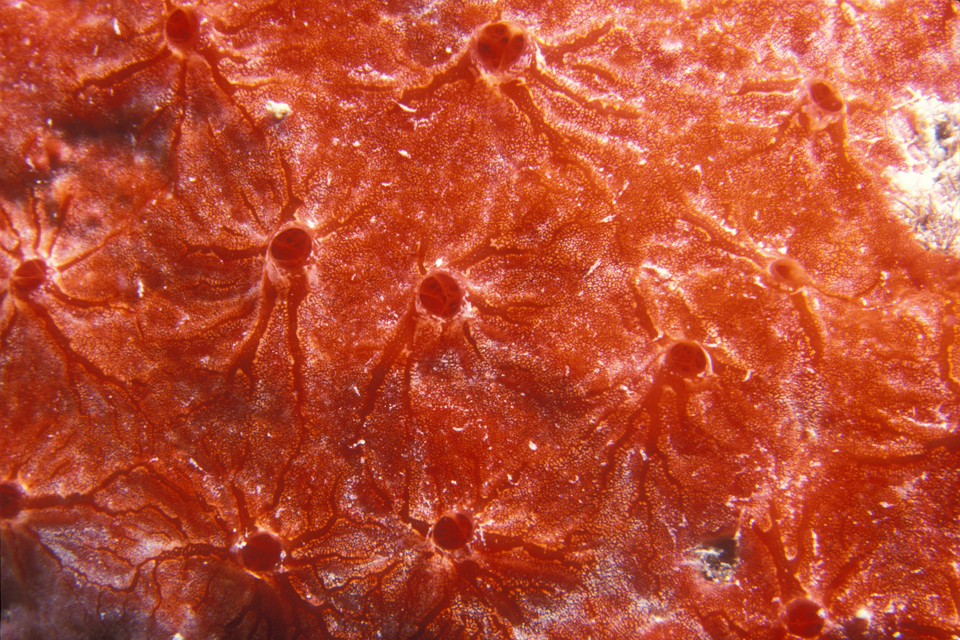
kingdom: Animalia
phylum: Porifera
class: Demospongiae
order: Poecilosclerida
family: Crambeidae
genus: Monanchora
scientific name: Monanchora arbuscula
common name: Red-white marbled sponge
